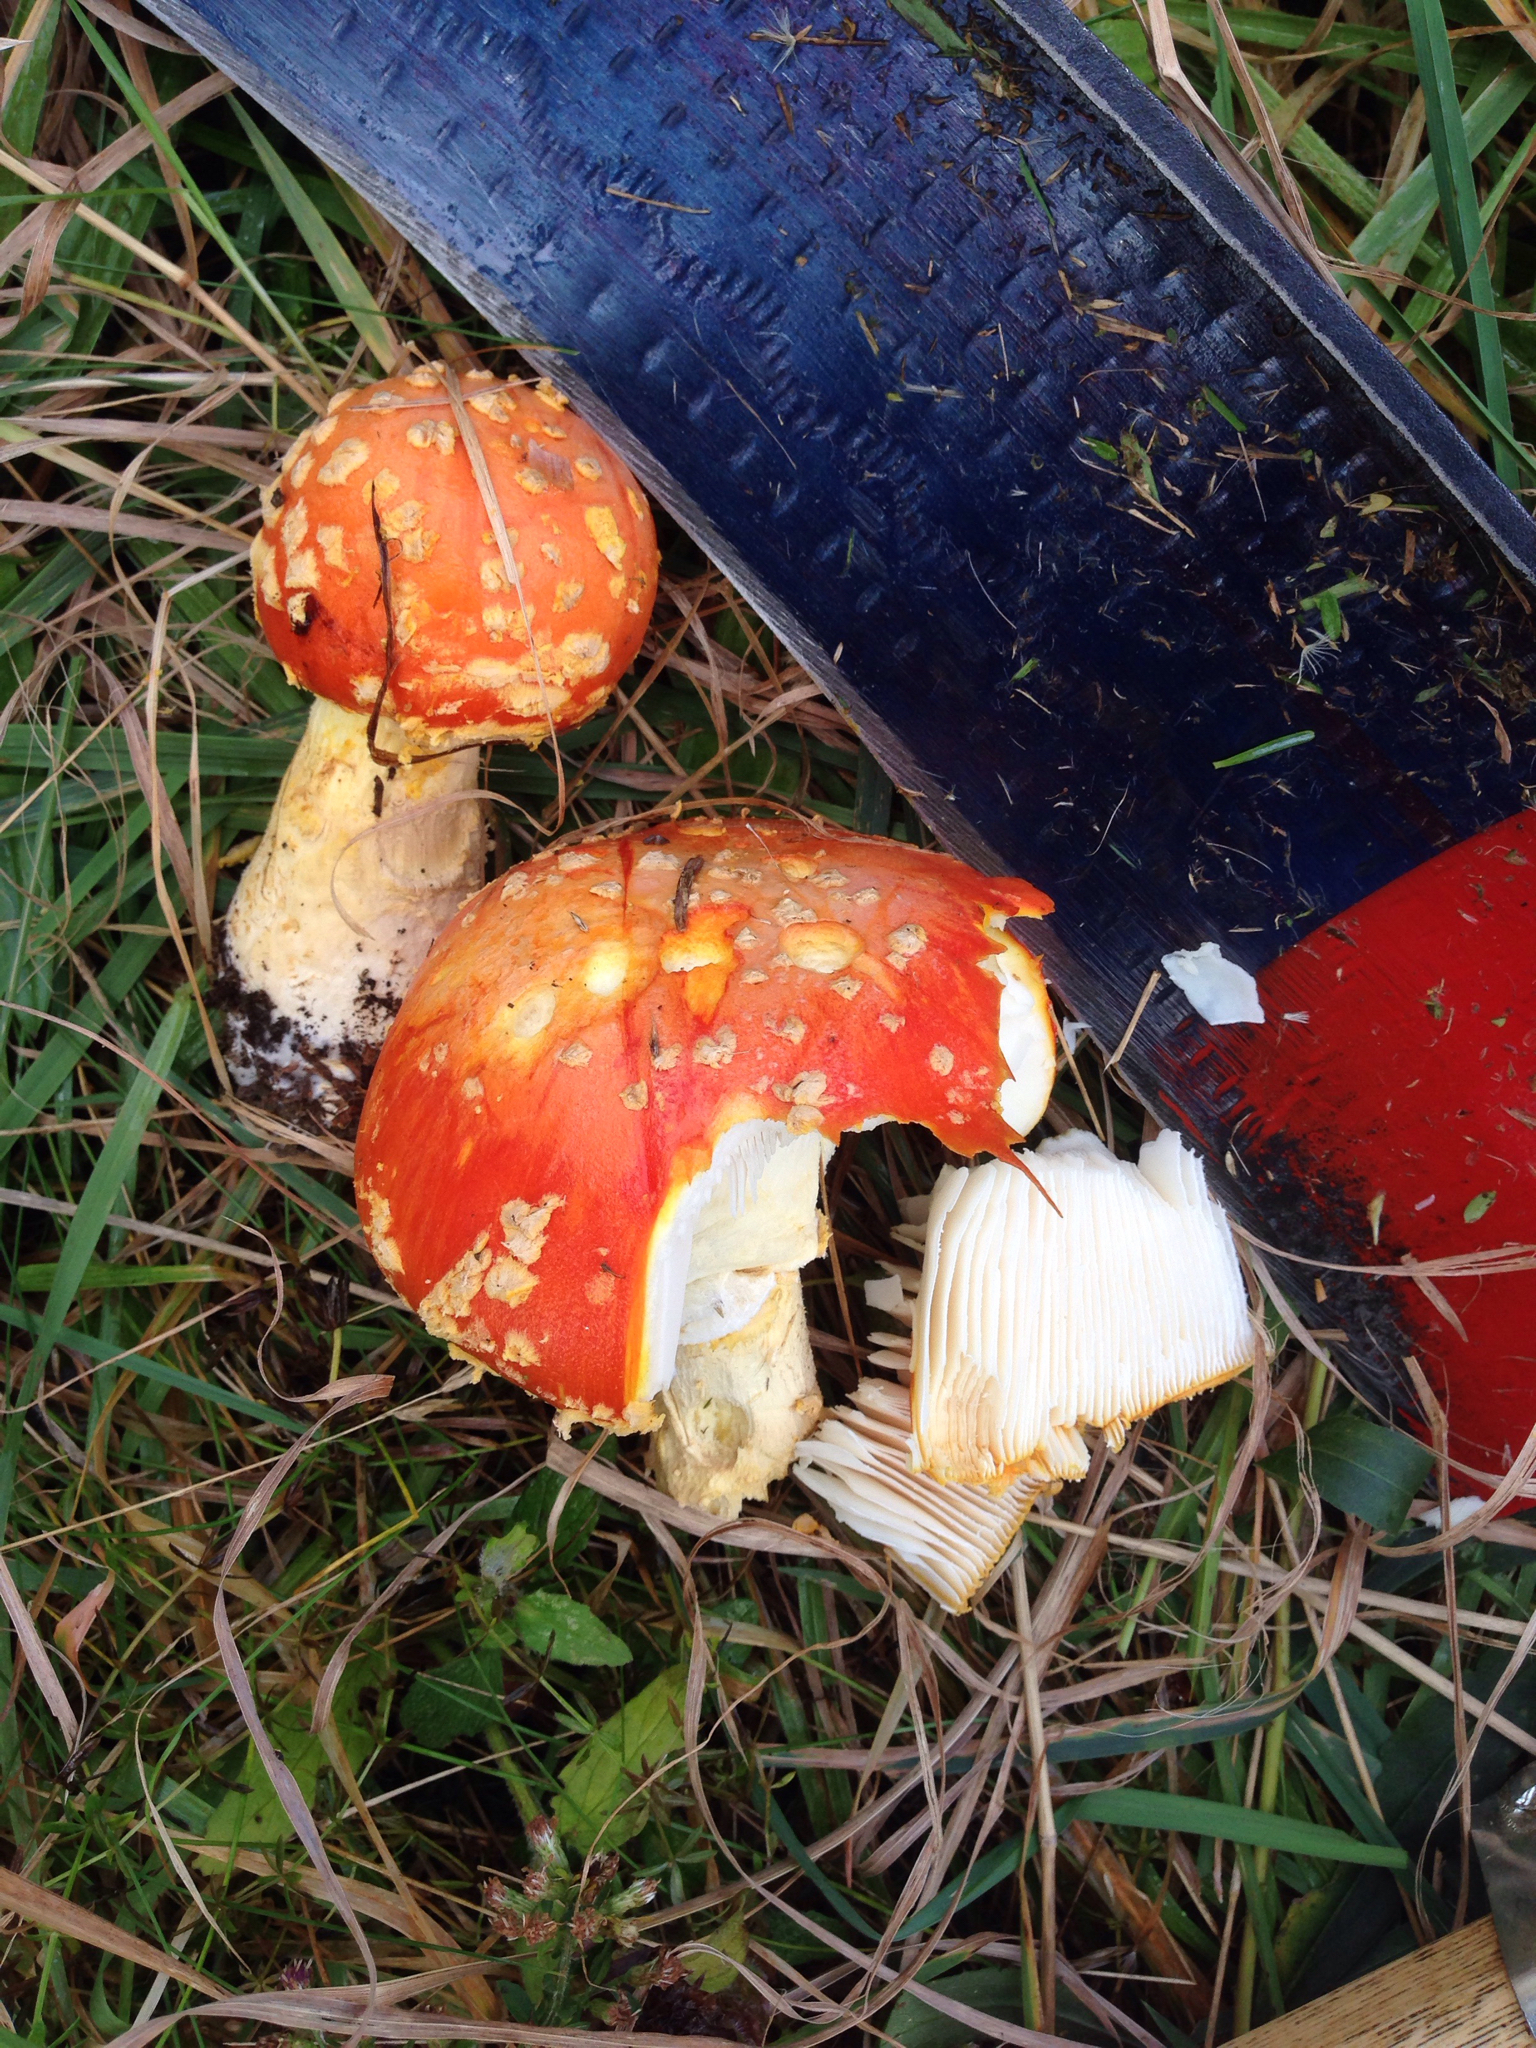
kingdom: Fungi
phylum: Basidiomycota
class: Agaricomycetes
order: Agaricales
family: Amanitaceae
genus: Amanita
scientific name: Amanita muscaria
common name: Fly agaric
